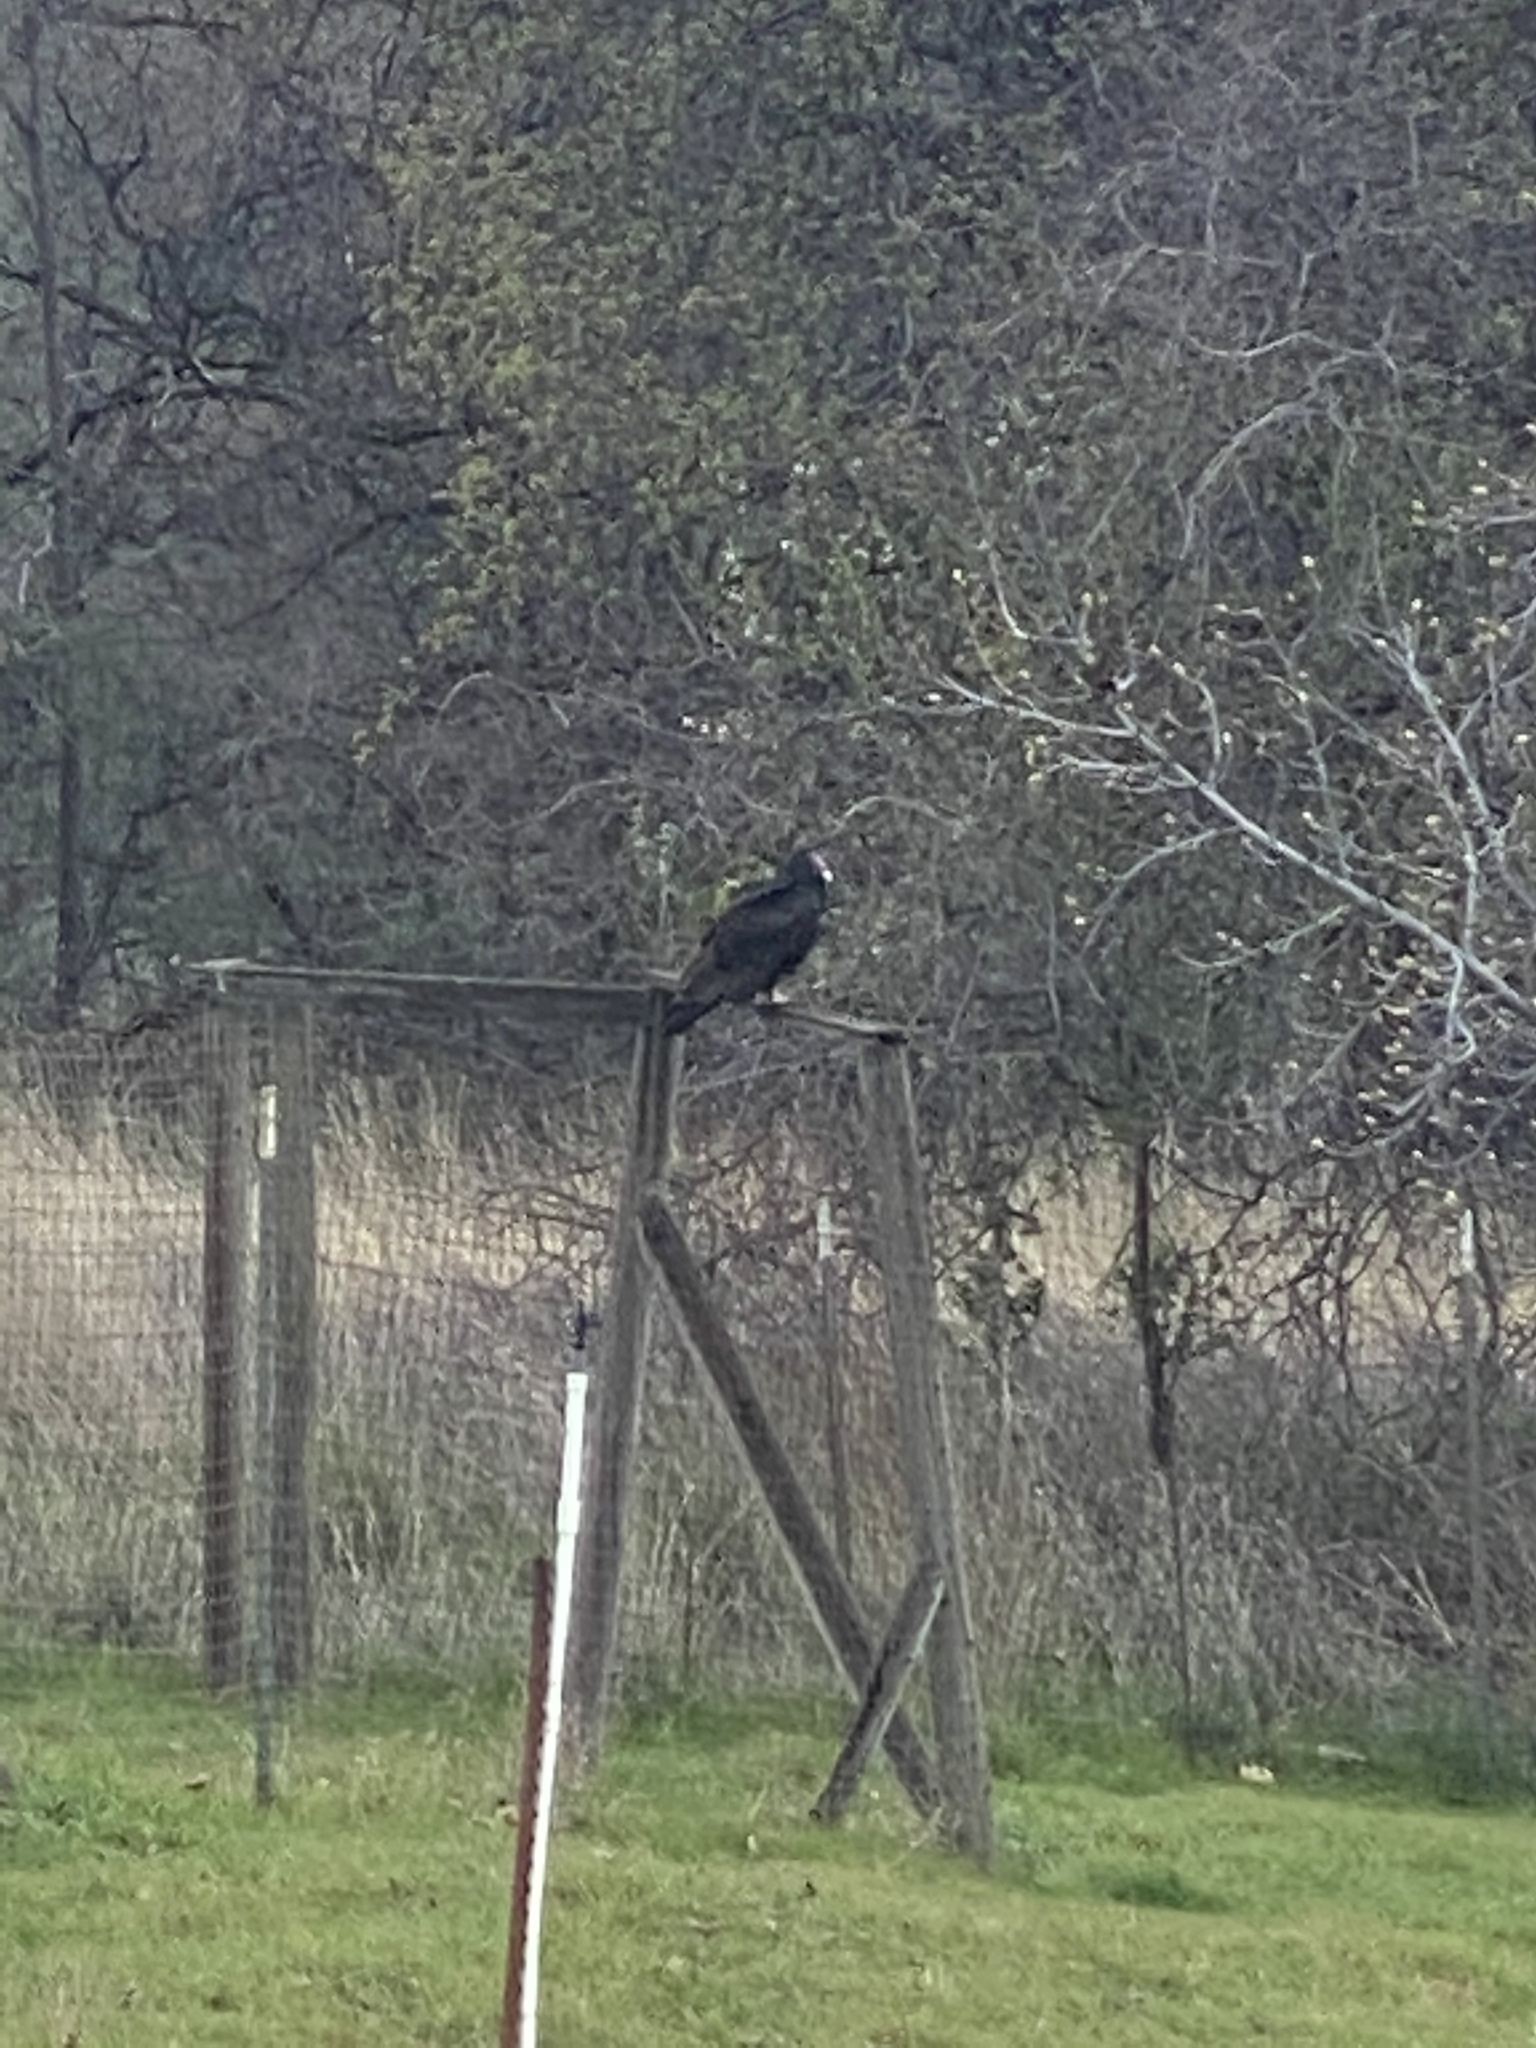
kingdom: Animalia
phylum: Chordata
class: Aves
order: Accipitriformes
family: Cathartidae
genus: Cathartes
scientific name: Cathartes aura
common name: Turkey vulture
